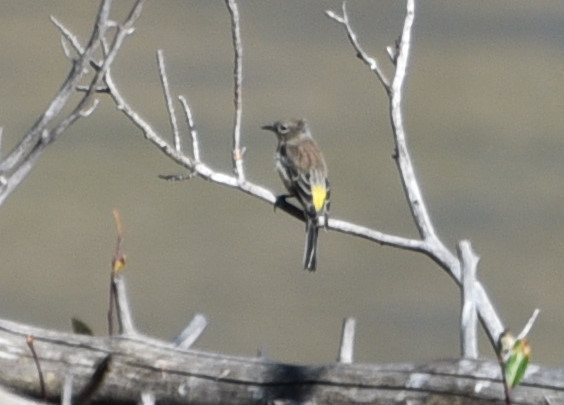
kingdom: Animalia
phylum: Chordata
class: Aves
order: Passeriformes
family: Parulidae
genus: Setophaga
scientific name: Setophaga coronata
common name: Myrtle warbler
